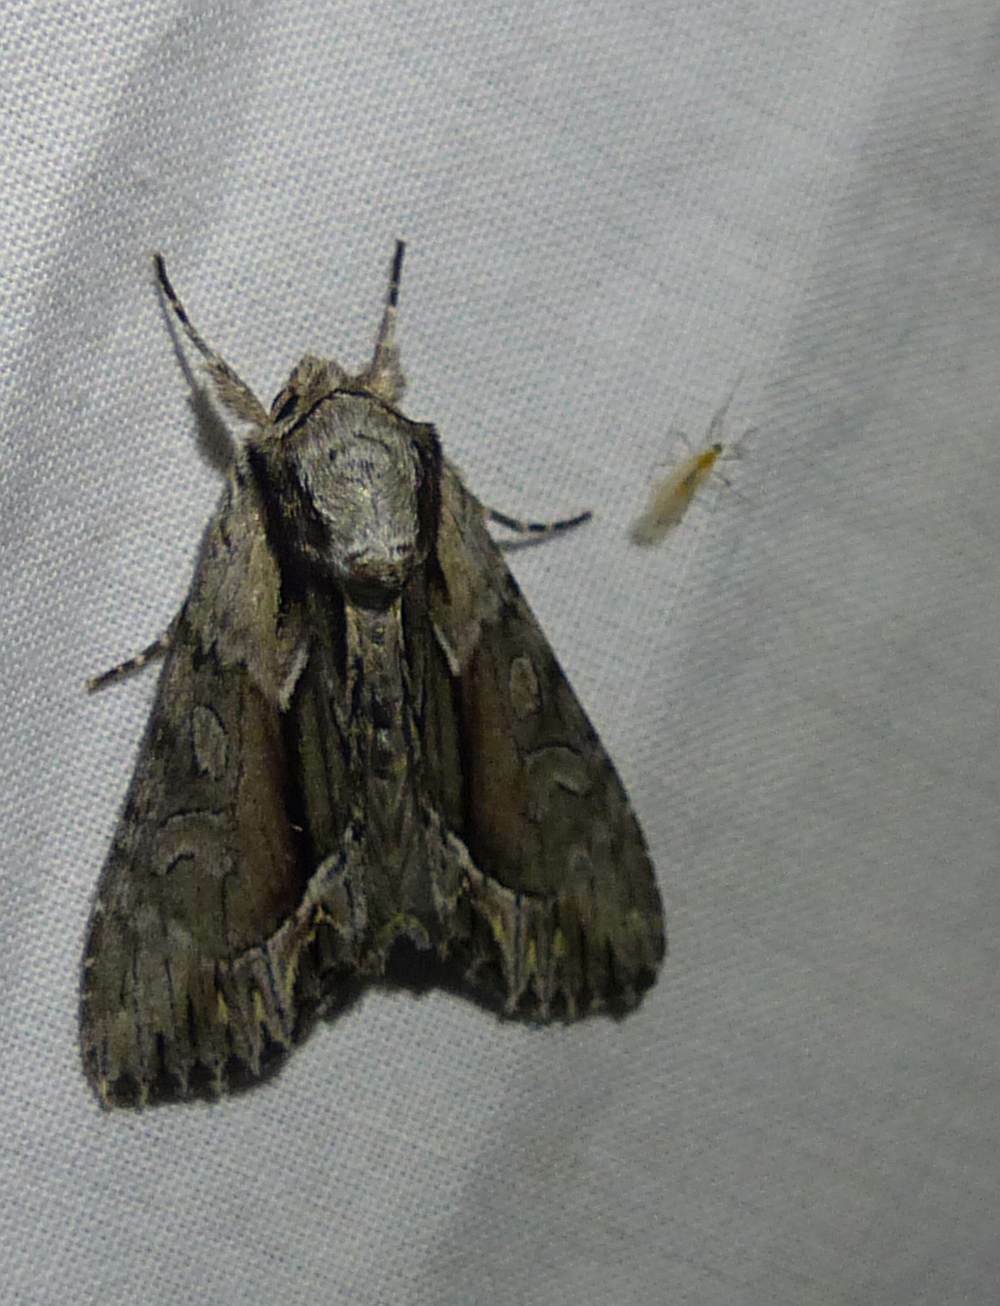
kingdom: Animalia
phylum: Arthropoda
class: Insecta
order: Lepidoptera
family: Noctuidae
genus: Hyppa
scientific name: Hyppa xylinoides
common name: Common hyppa moth
